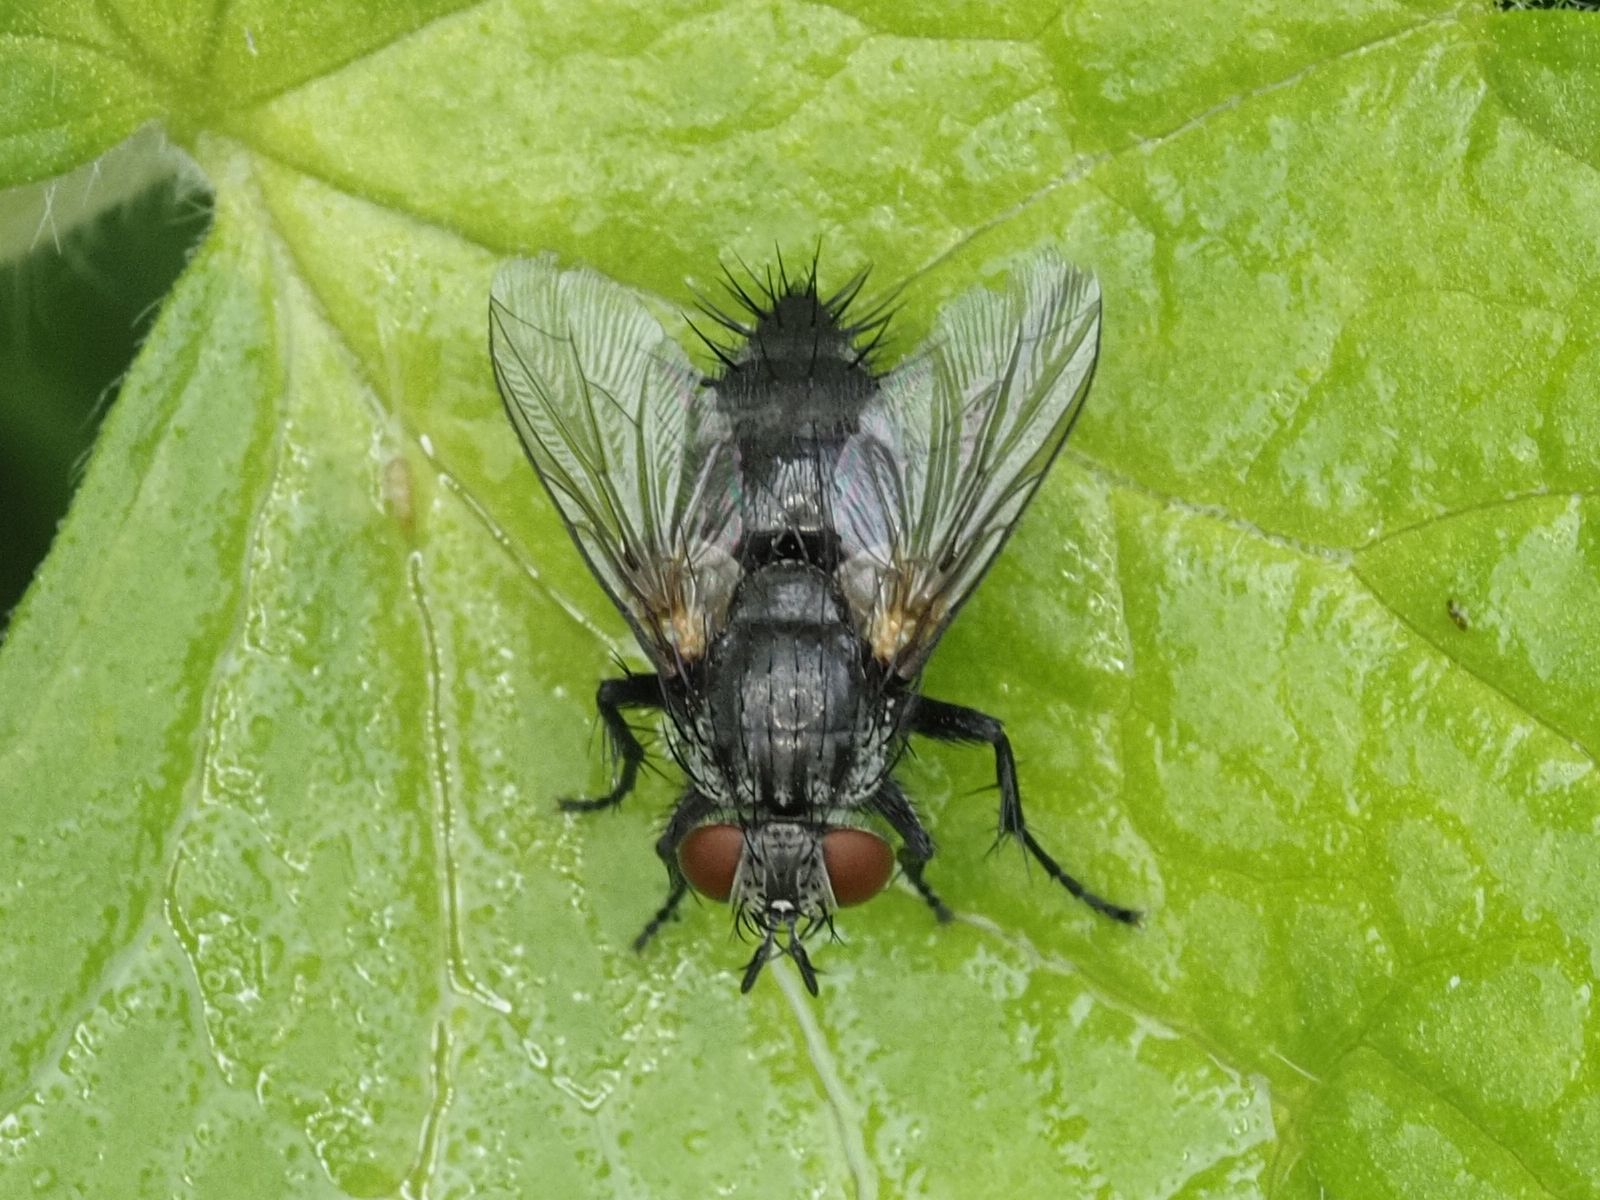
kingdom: Animalia
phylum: Arthropoda
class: Insecta
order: Diptera
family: Tachinidae
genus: Voria
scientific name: Voria ruralis
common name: Parasitic fly
